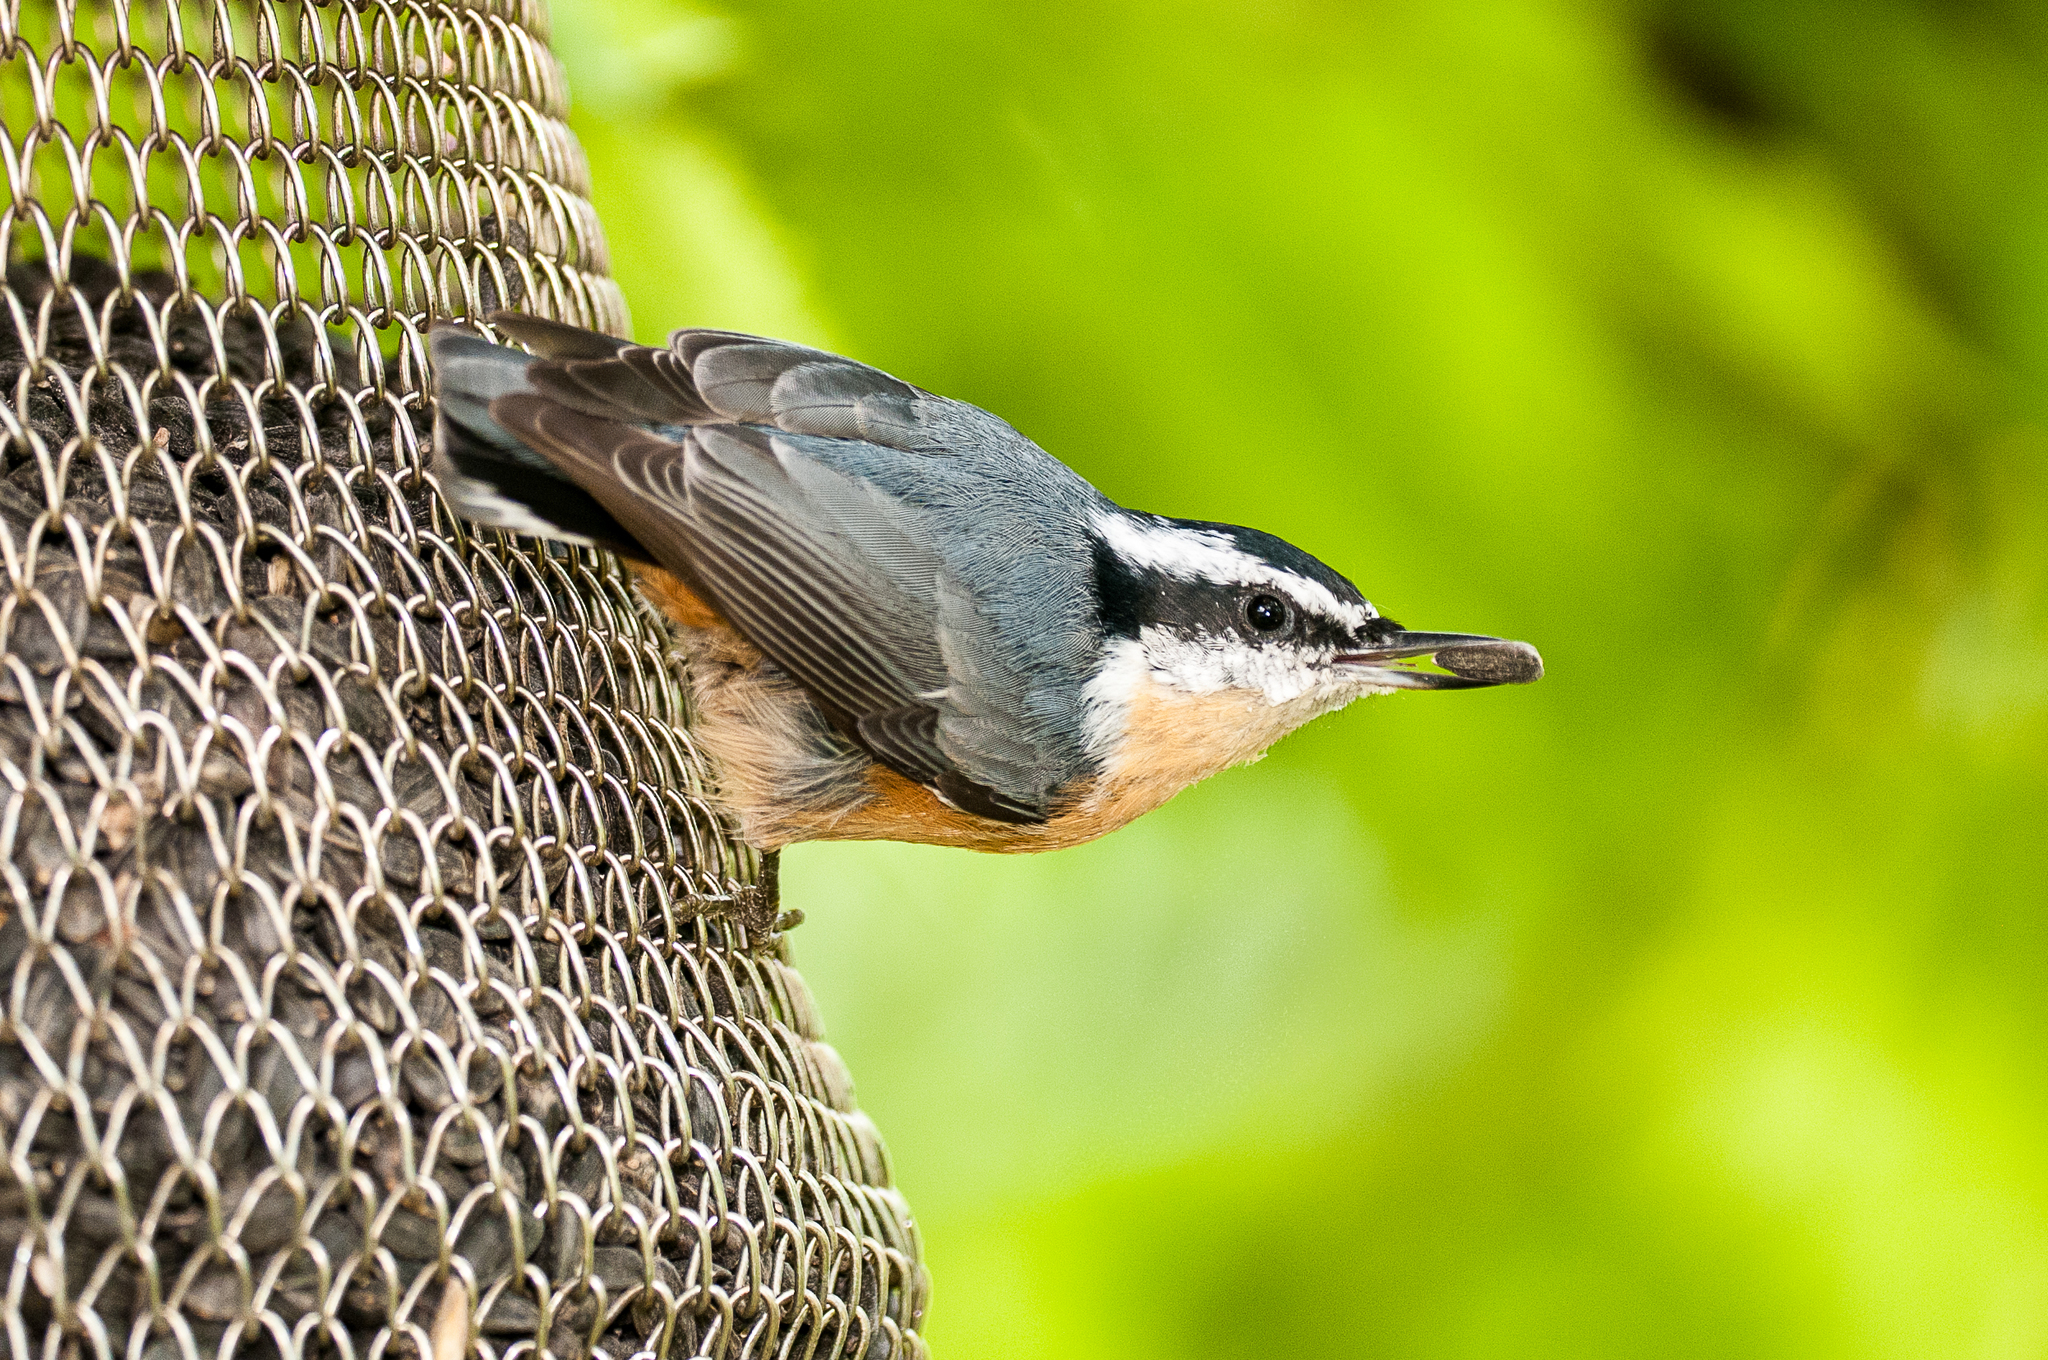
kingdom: Animalia
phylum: Chordata
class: Aves
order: Passeriformes
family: Sittidae
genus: Sitta
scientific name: Sitta canadensis
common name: Red-breasted nuthatch
